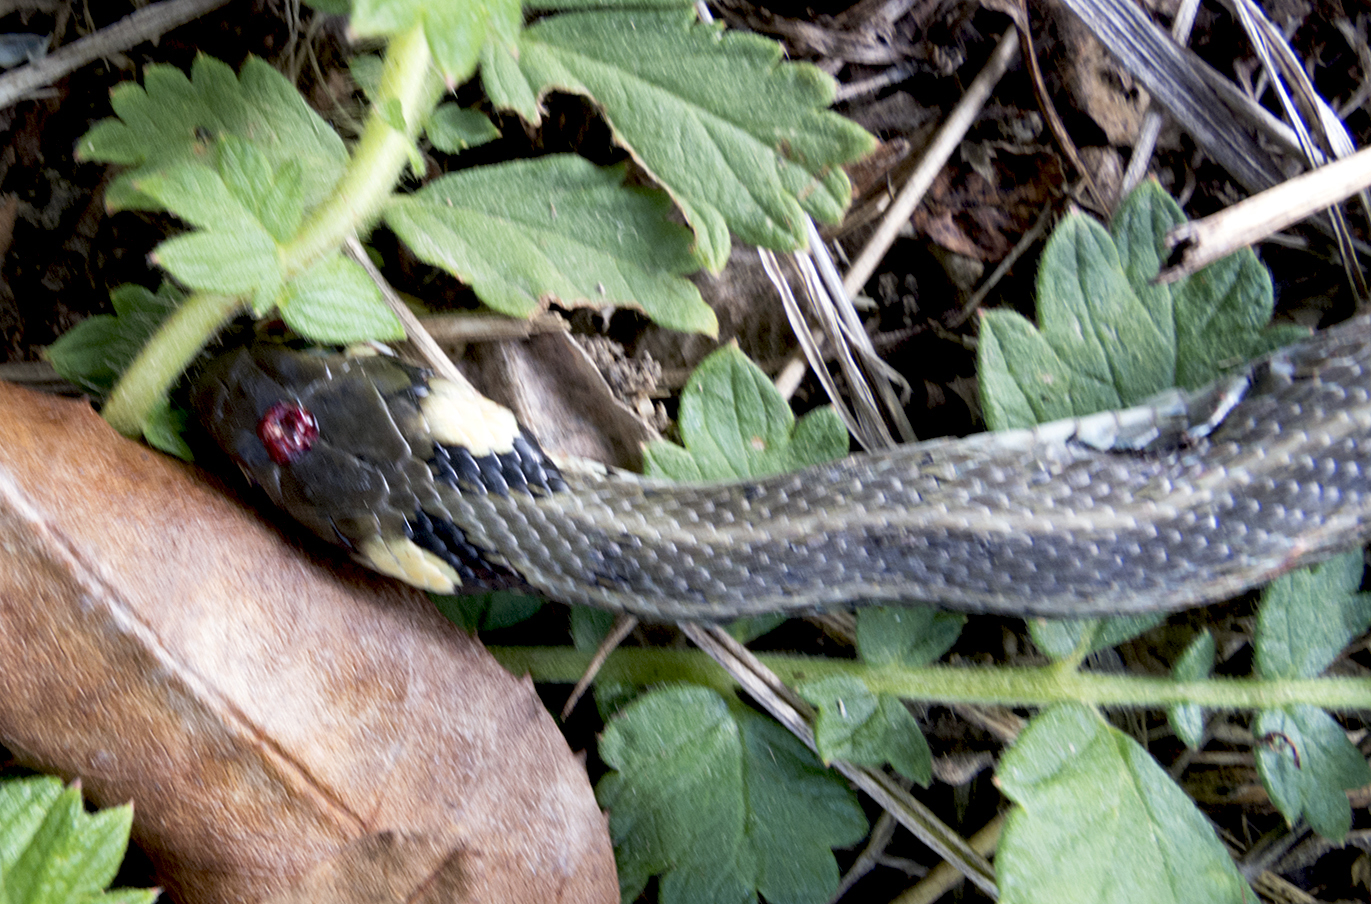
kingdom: Animalia
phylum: Chordata
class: Squamata
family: Colubridae
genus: Natrix
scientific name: Natrix natrix
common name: Grass snake
